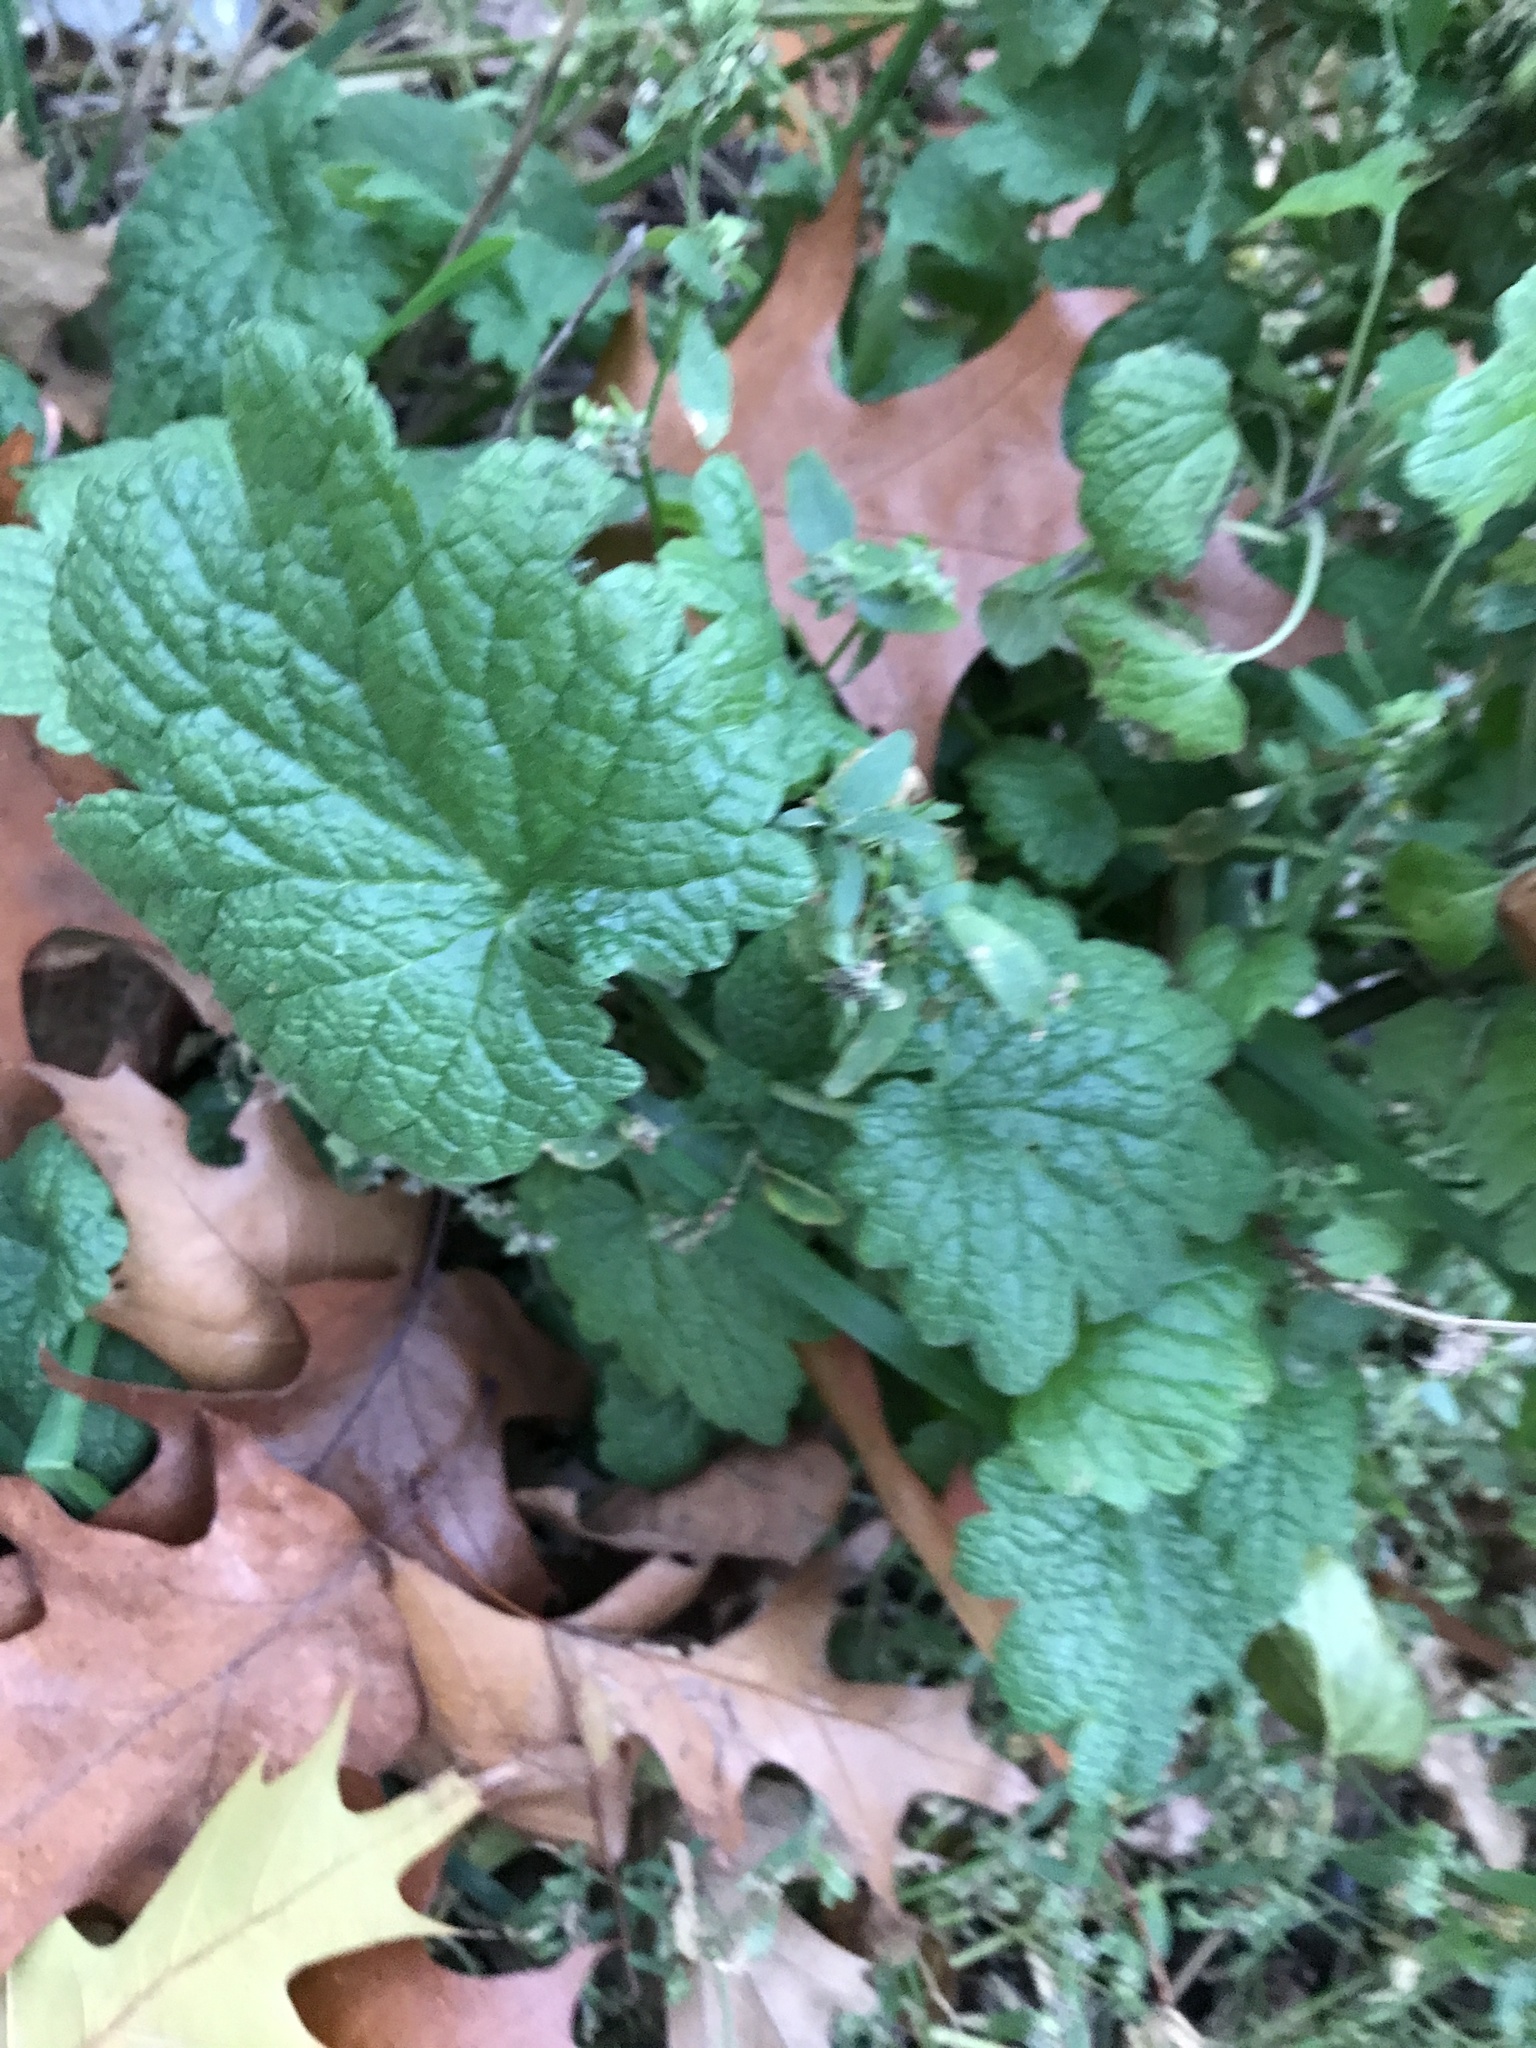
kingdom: Plantae
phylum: Tracheophyta
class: Magnoliopsida
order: Lamiales
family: Lamiaceae
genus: Leonurus
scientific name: Leonurus cardiaca
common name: Motherwort
